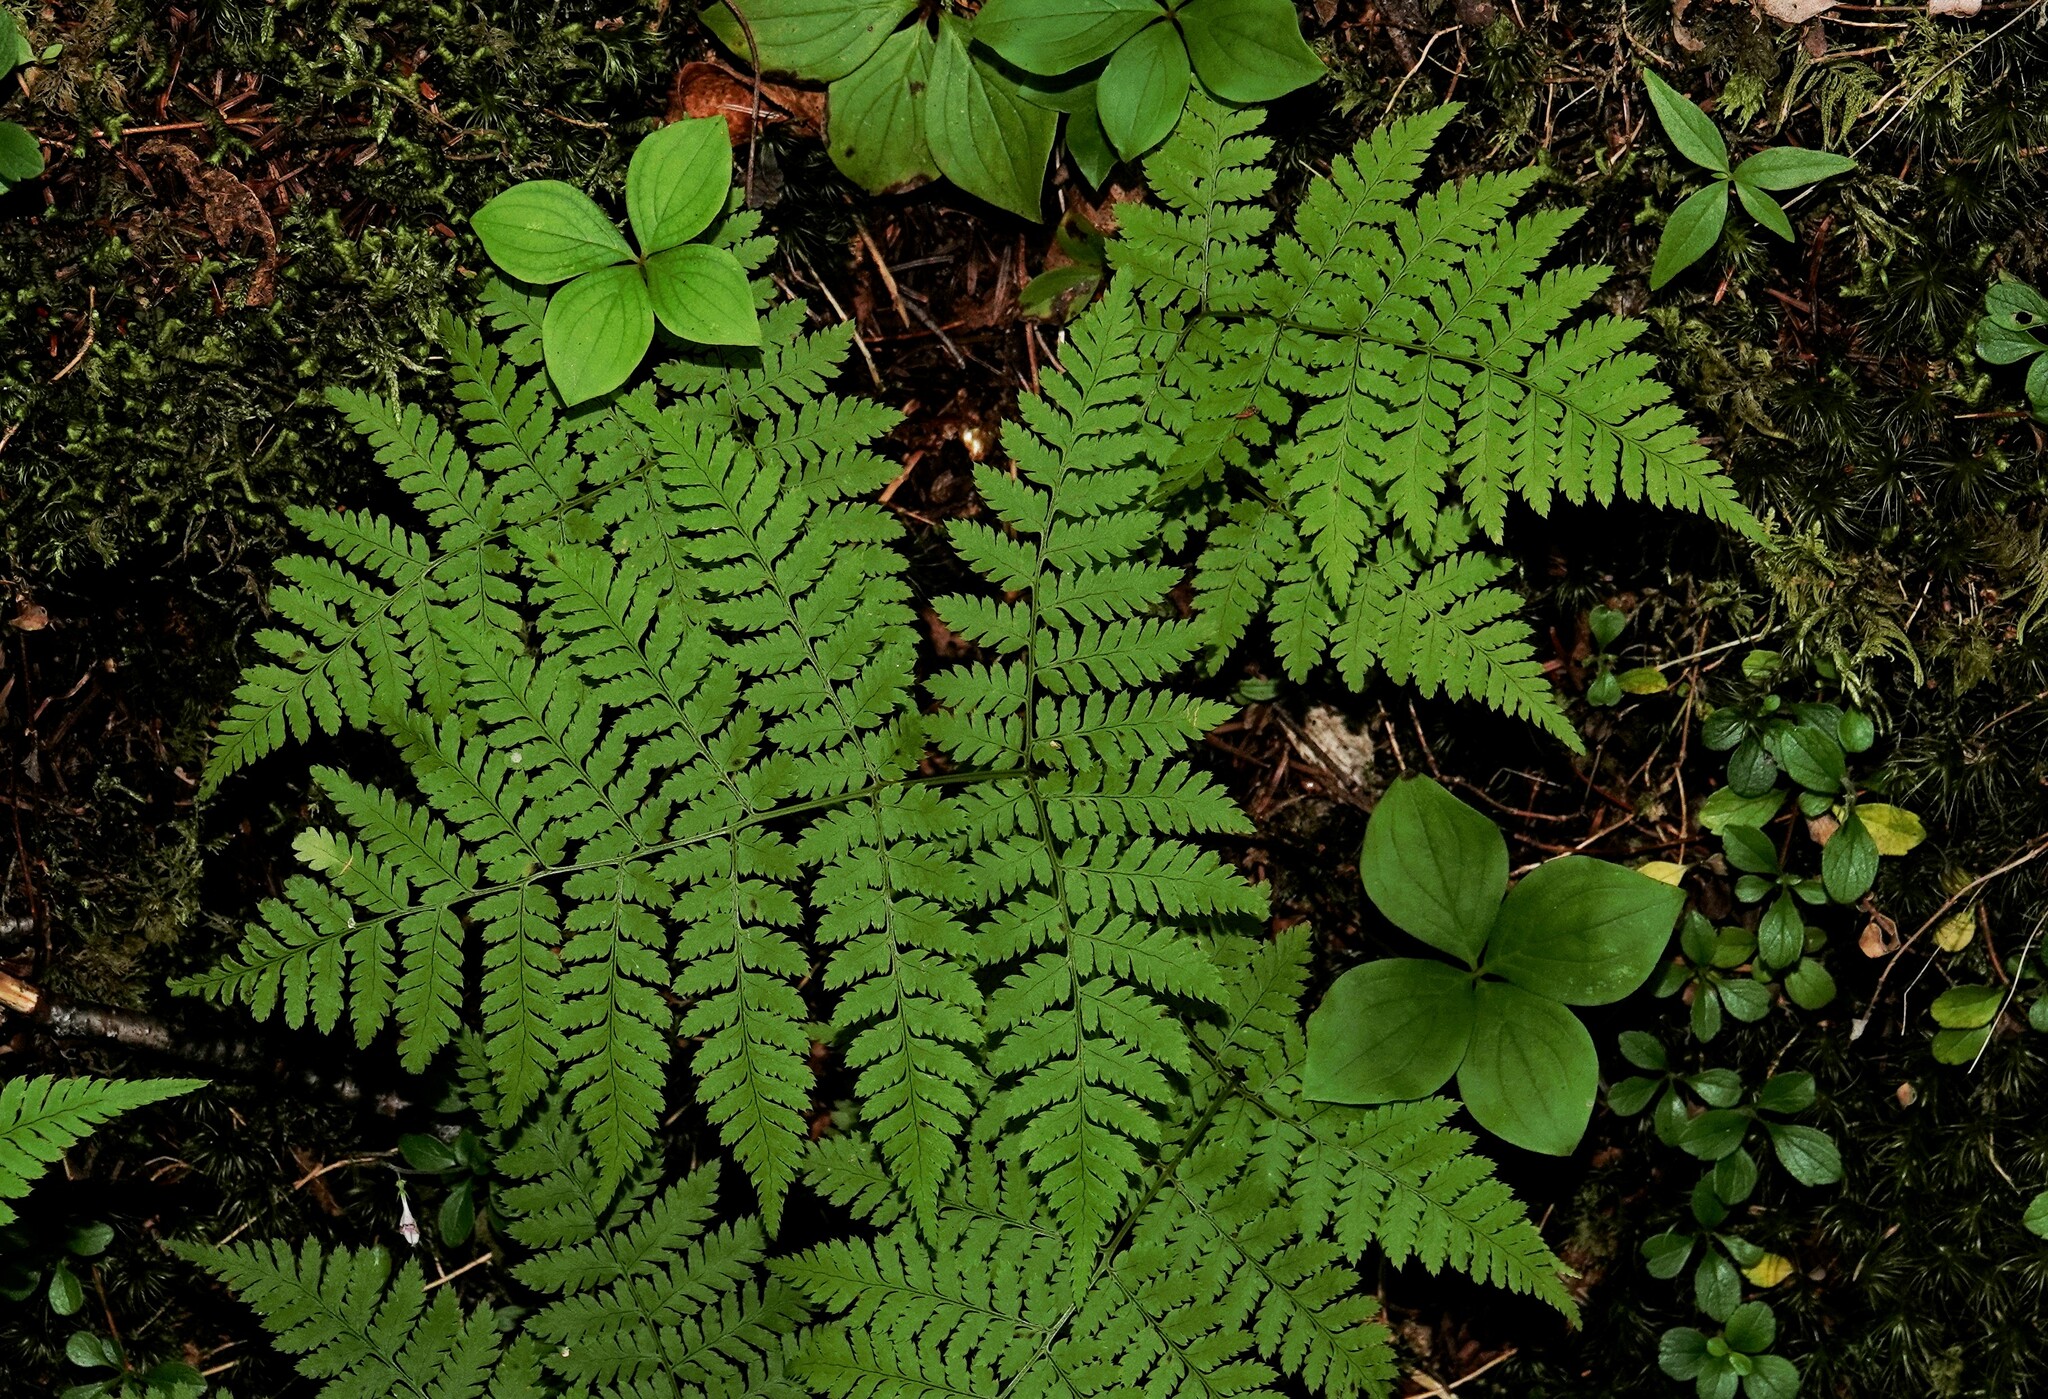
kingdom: Plantae
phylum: Tracheophyta
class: Polypodiopsida
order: Polypodiales
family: Dryopteridaceae
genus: Dryopteris
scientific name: Dryopteris campyloptera
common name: Mountain wood fern
